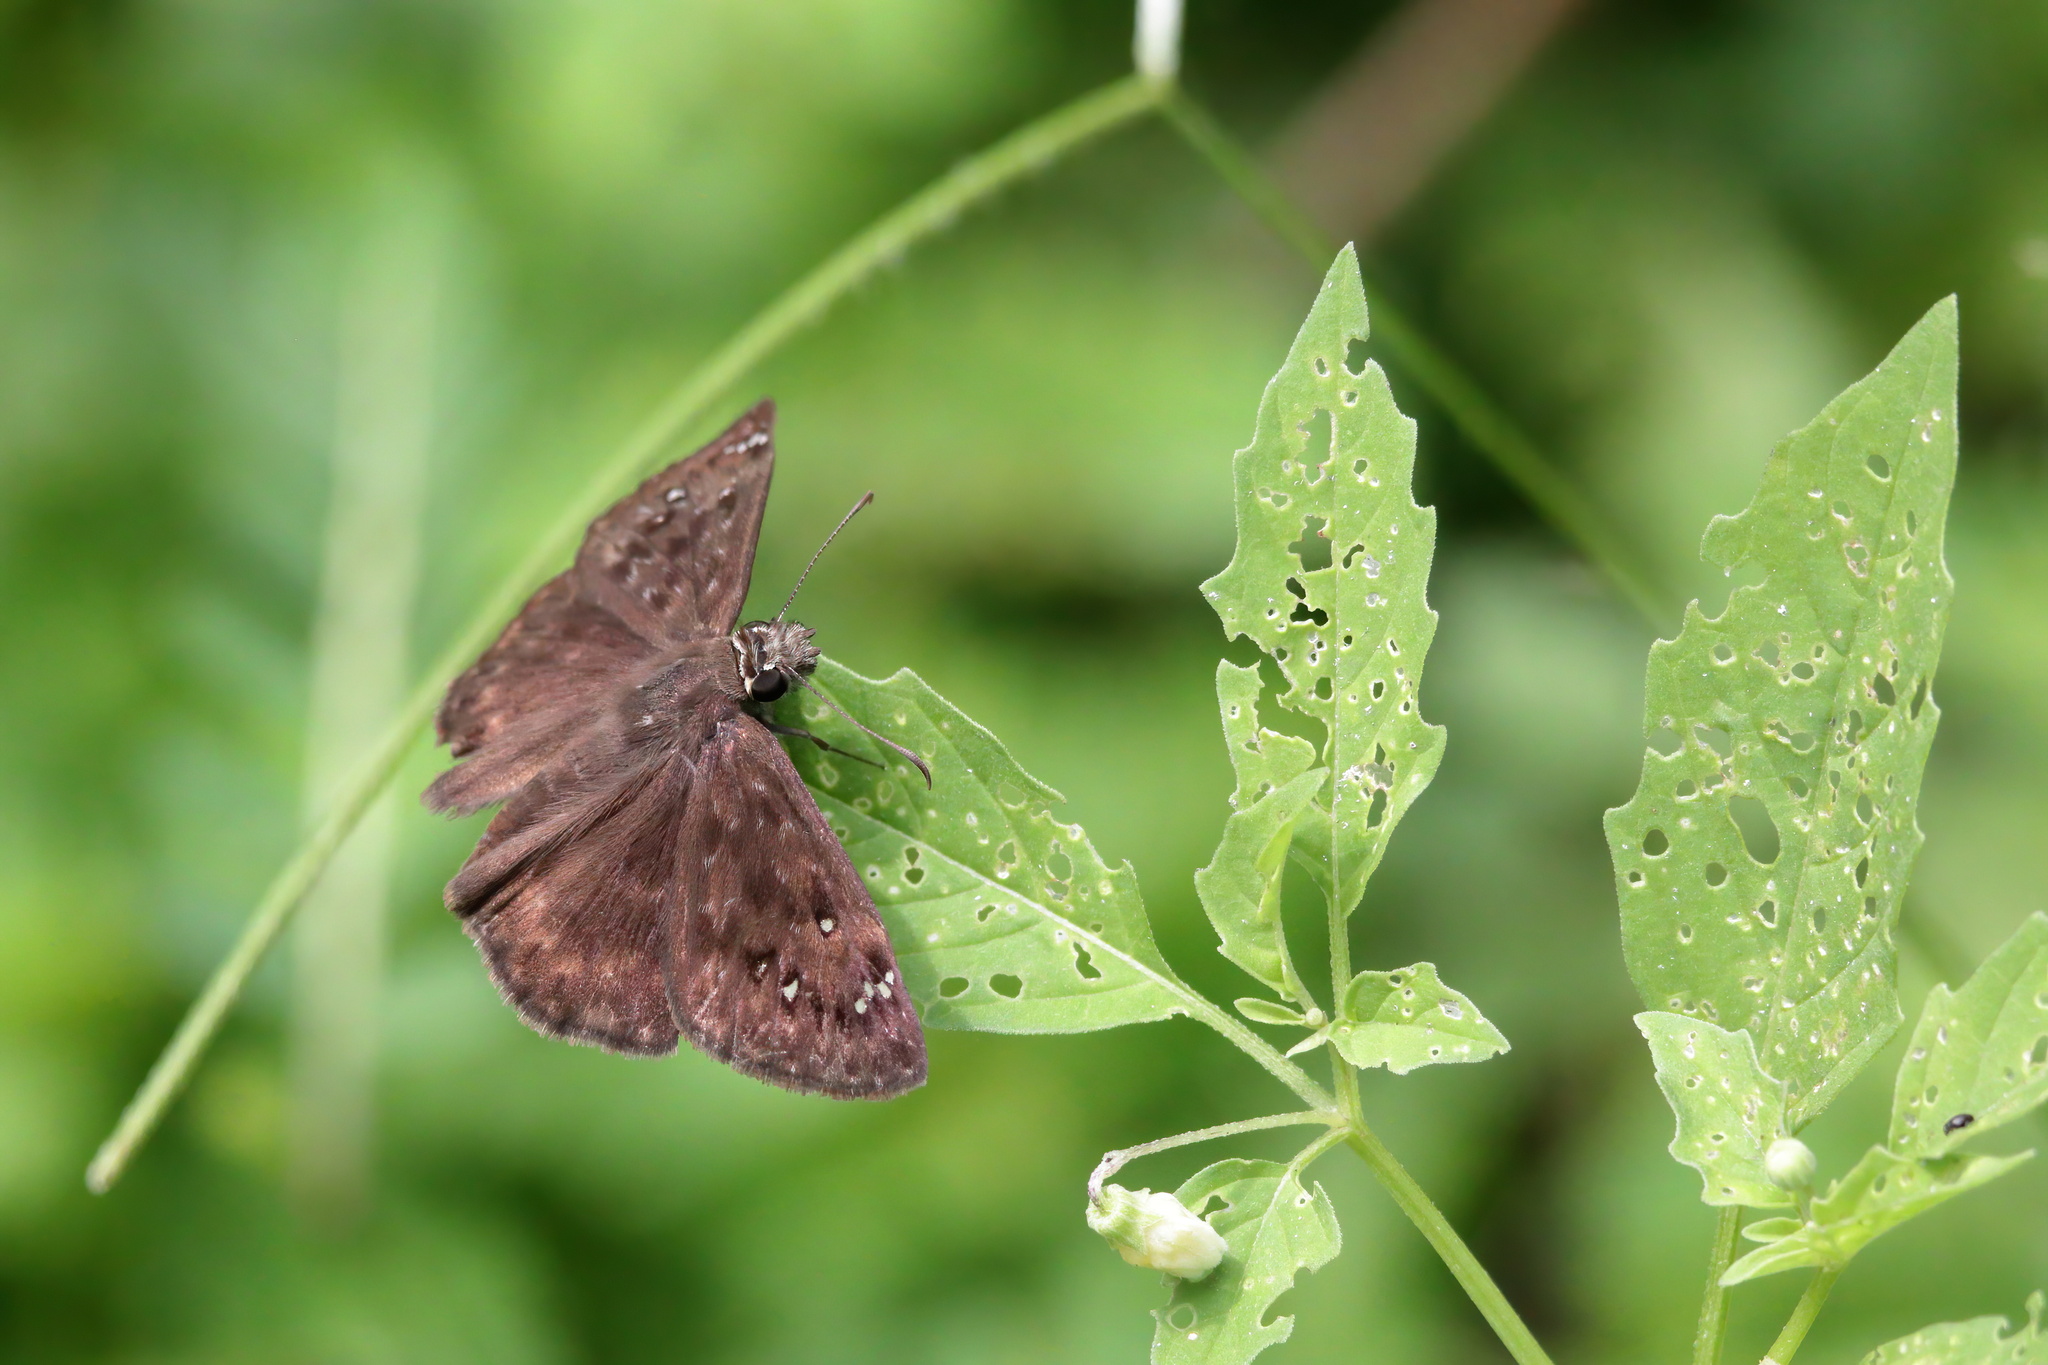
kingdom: Animalia
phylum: Arthropoda
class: Insecta
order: Lepidoptera
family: Hesperiidae
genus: Erynnis
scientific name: Erynnis horatius
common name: Horace's duskywing
